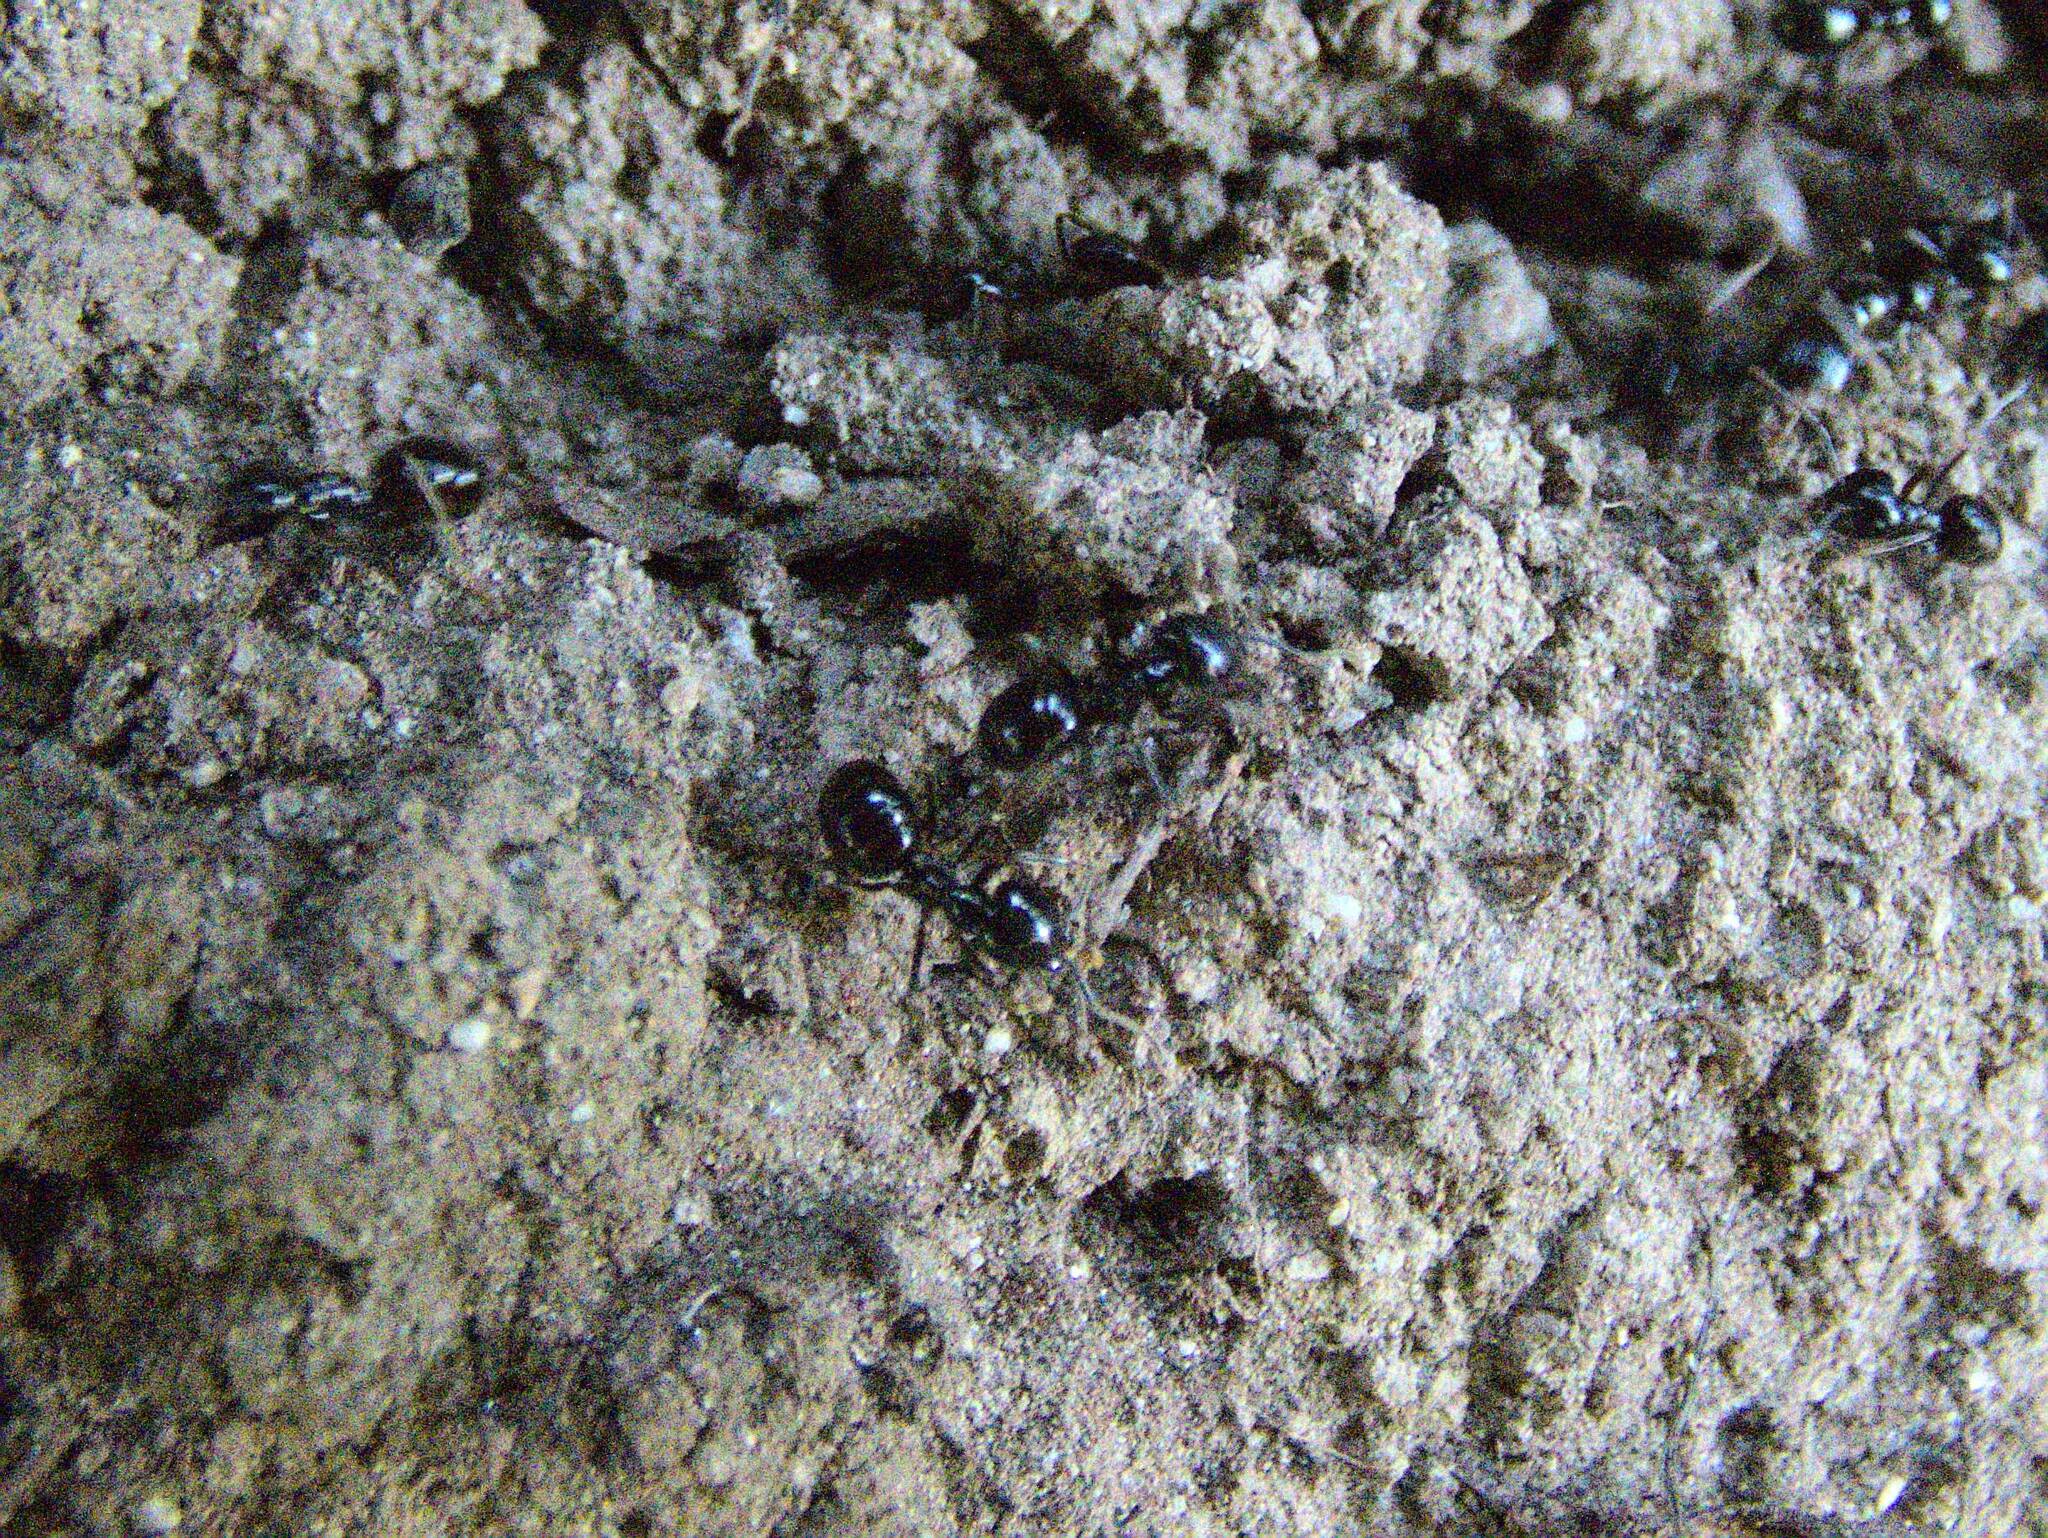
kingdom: Animalia
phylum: Arthropoda
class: Insecta
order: Hymenoptera
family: Formicidae
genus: Lasius
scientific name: Lasius fuliginosus
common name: Jet ant
